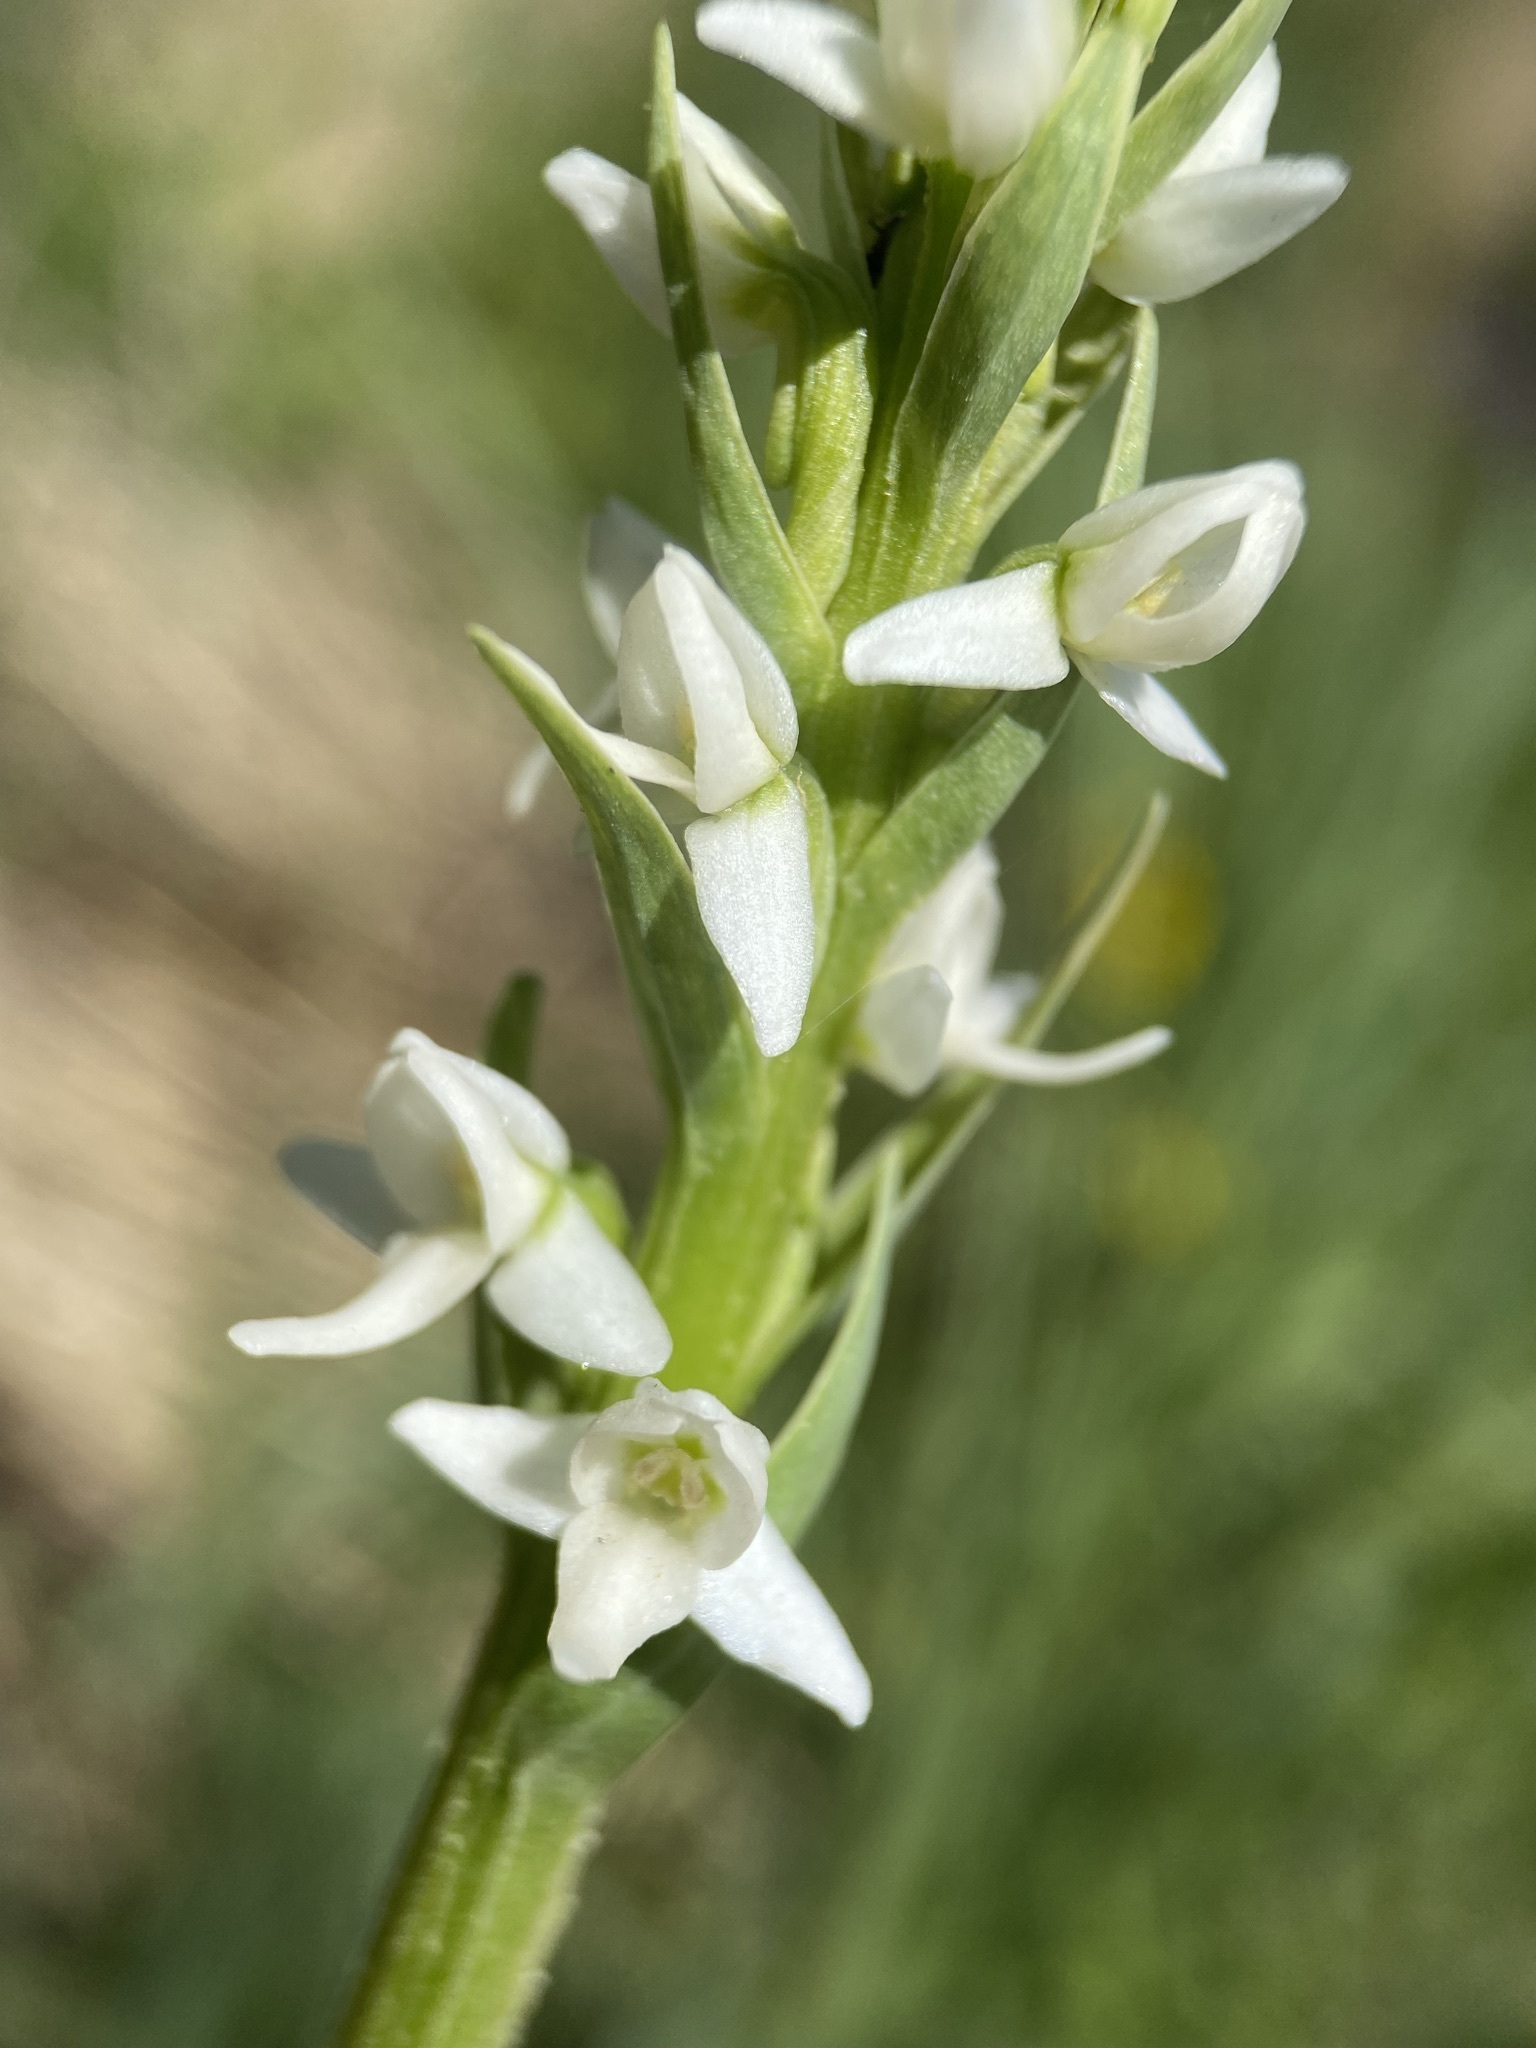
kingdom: Plantae
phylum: Tracheophyta
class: Liliopsida
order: Asparagales
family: Orchidaceae
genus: Platanthera
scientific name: Platanthera dilatata
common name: Bog candles
